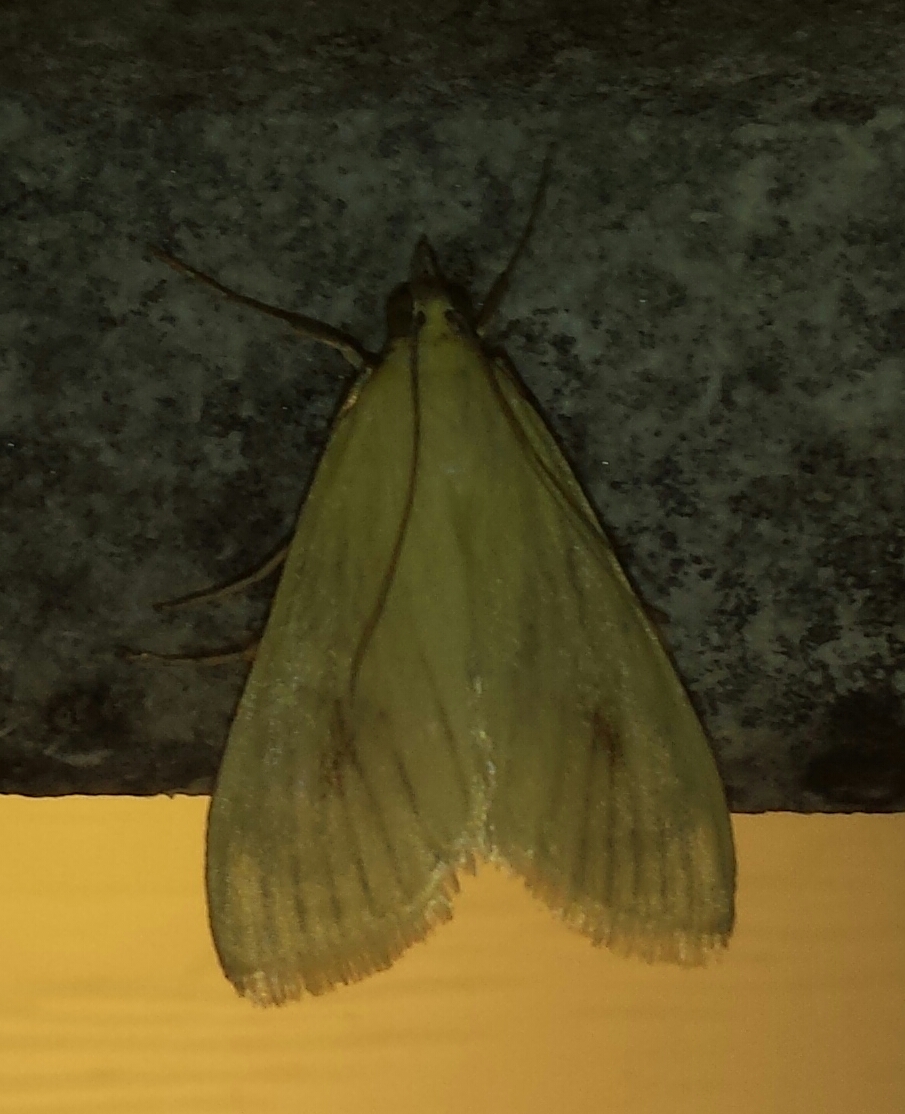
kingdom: Animalia
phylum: Arthropoda
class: Insecta
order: Lepidoptera
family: Crambidae
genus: Sitochroa
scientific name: Sitochroa palealis
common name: Greenish-yellow sitochroa moth
